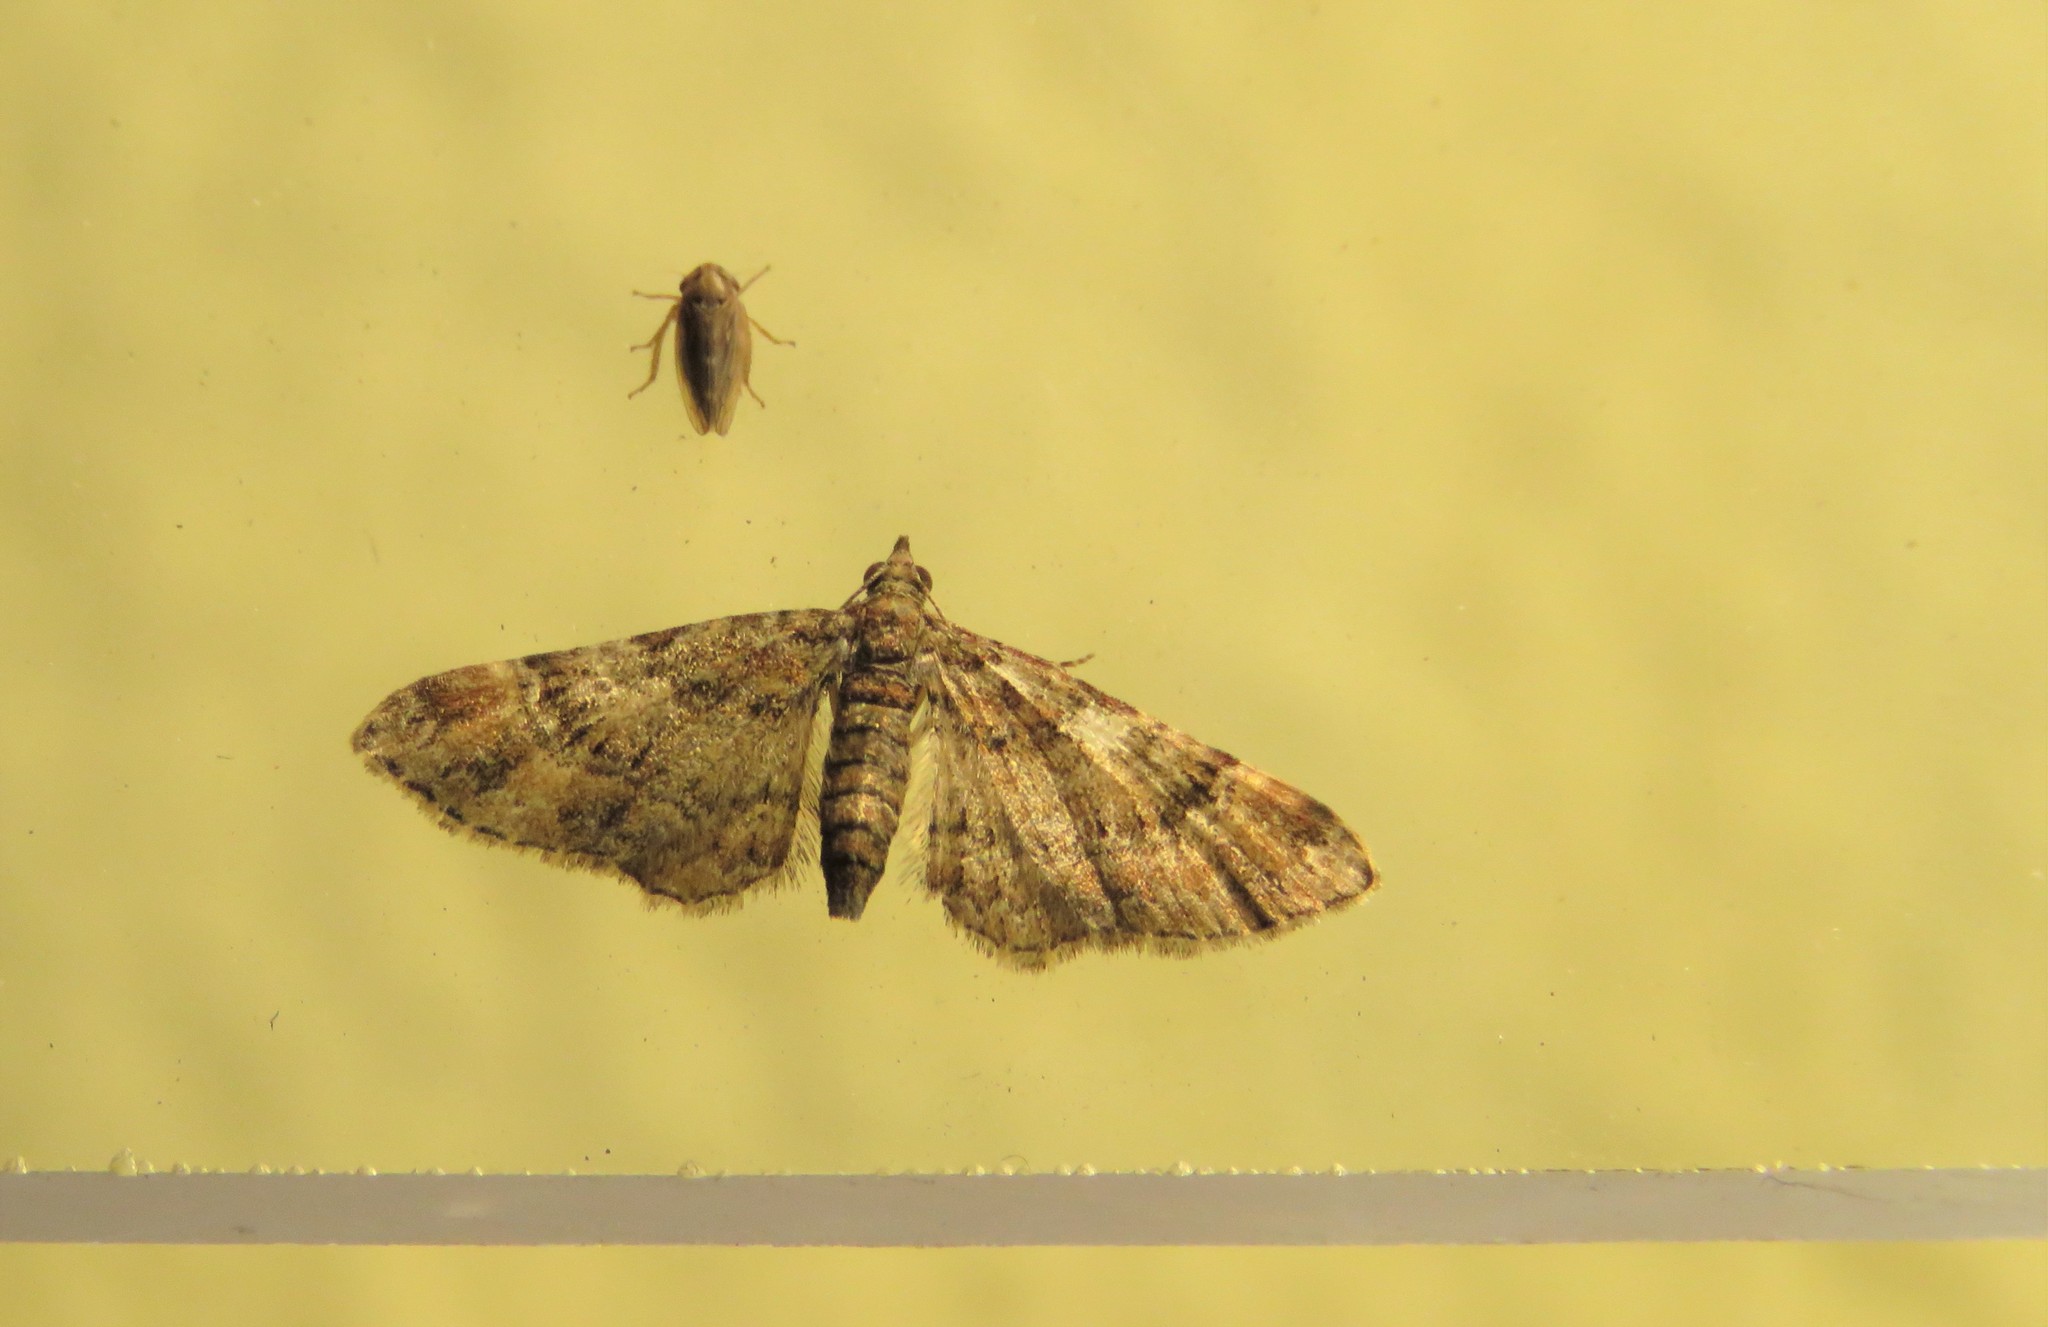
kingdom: Animalia
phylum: Arthropoda
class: Insecta
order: Lepidoptera
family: Geometridae
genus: Gymnoscelis
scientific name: Gymnoscelis rufifasciata
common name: Double-striped pug
